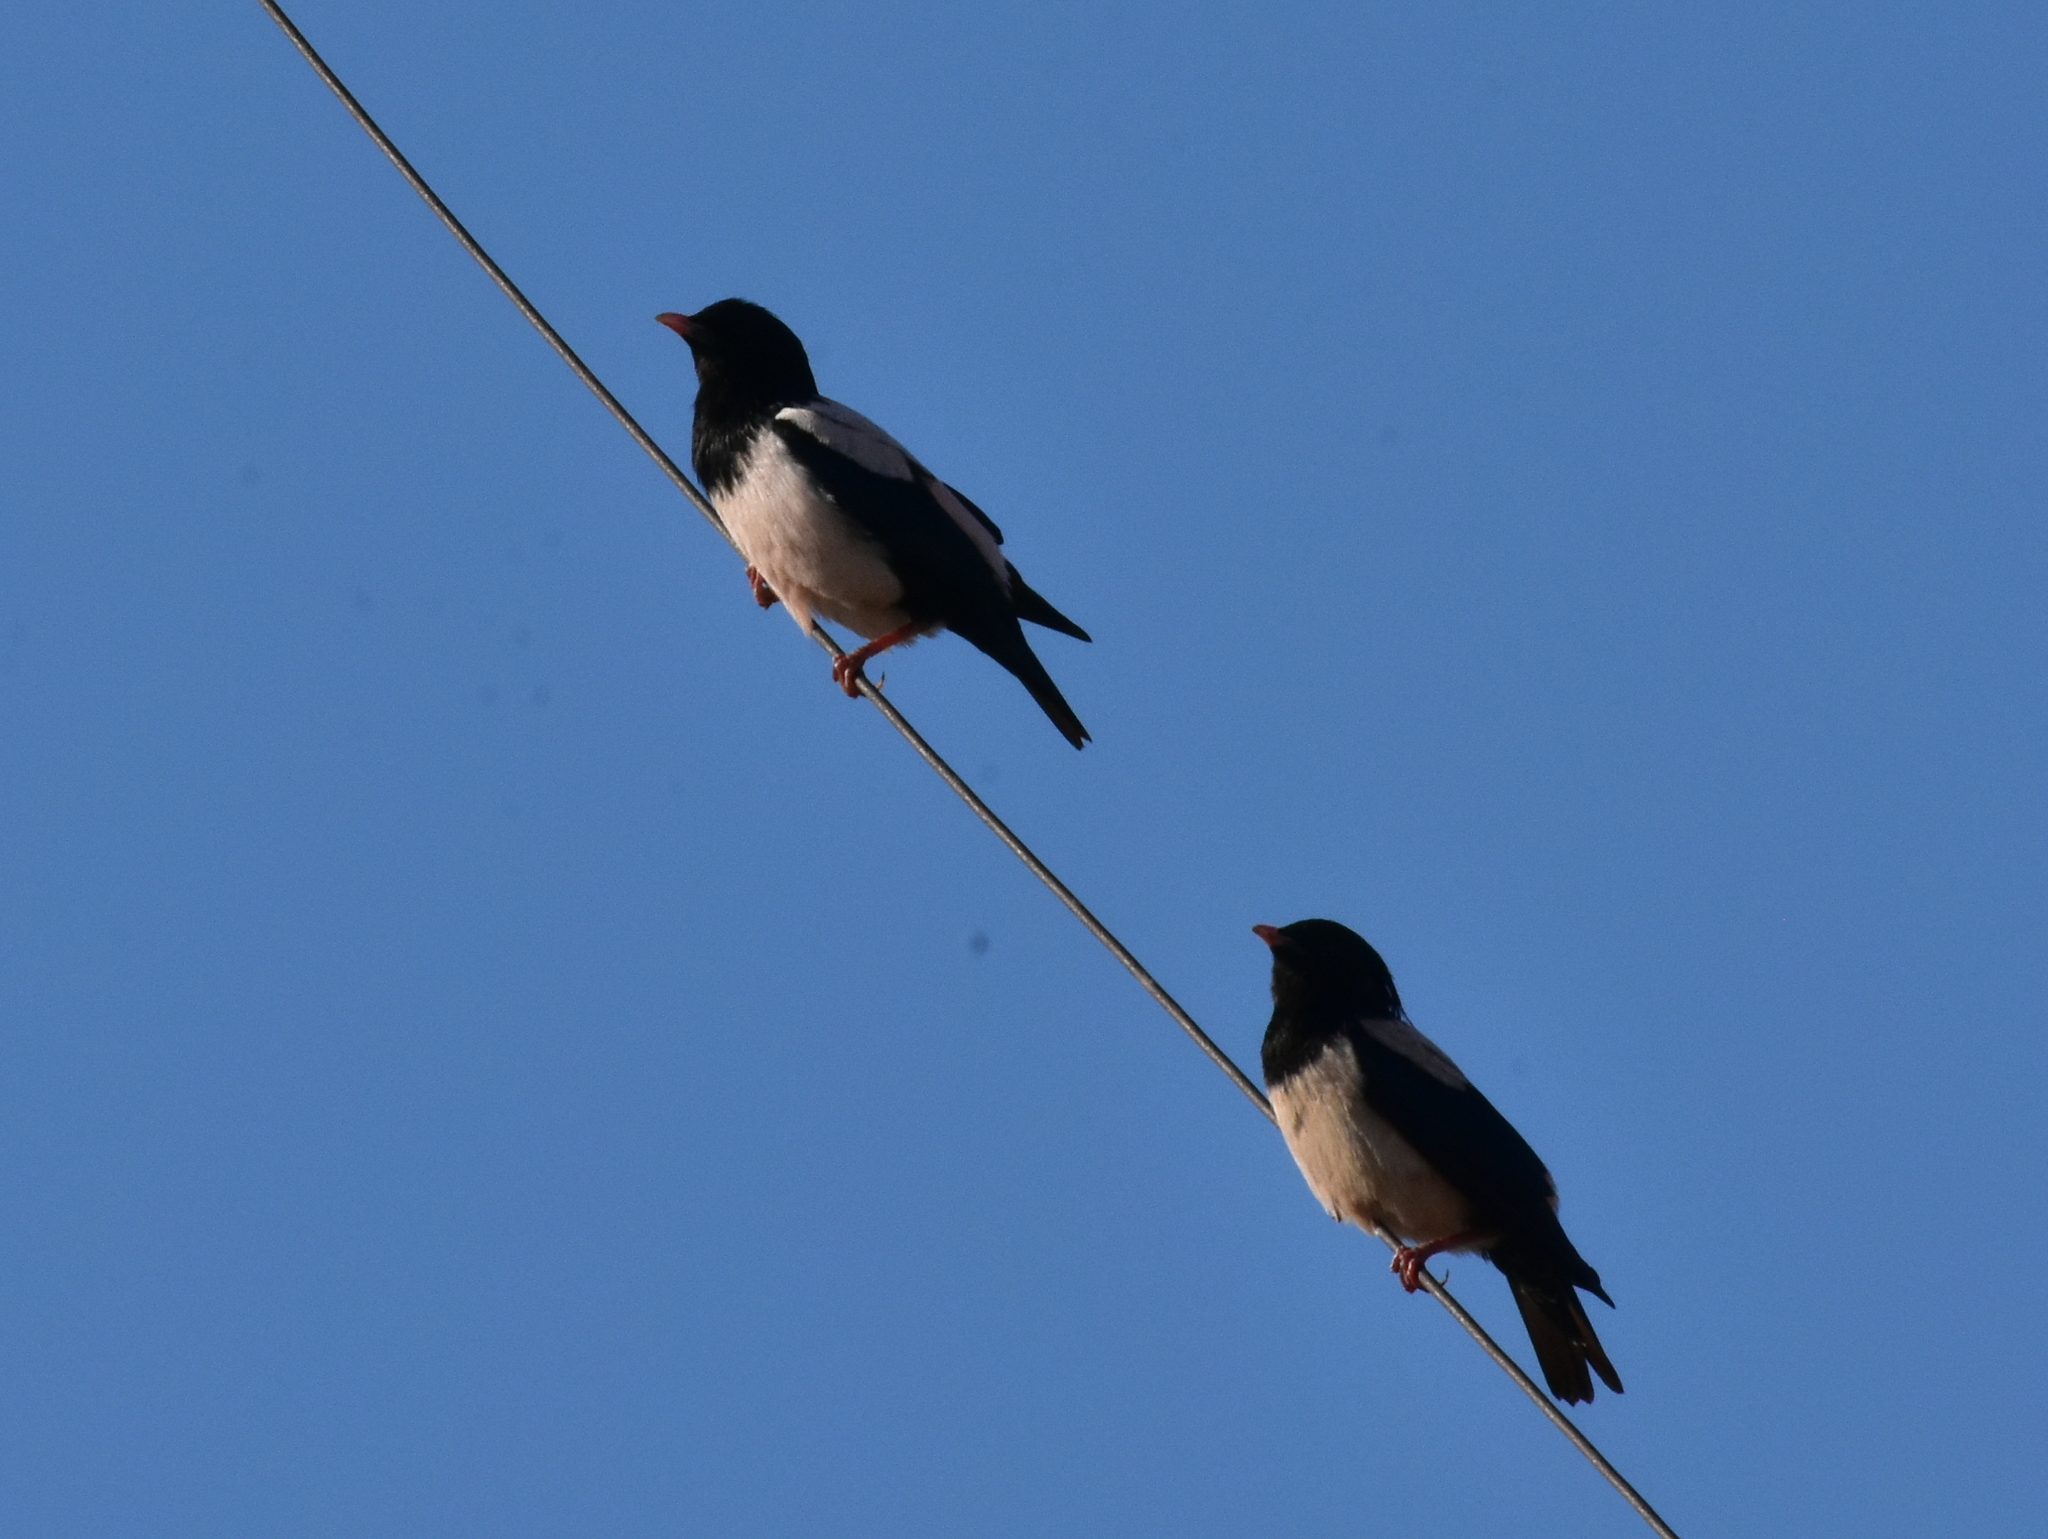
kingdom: Animalia
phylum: Chordata
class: Aves
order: Passeriformes
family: Sturnidae
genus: Pastor
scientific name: Pastor roseus
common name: Rosy starling
